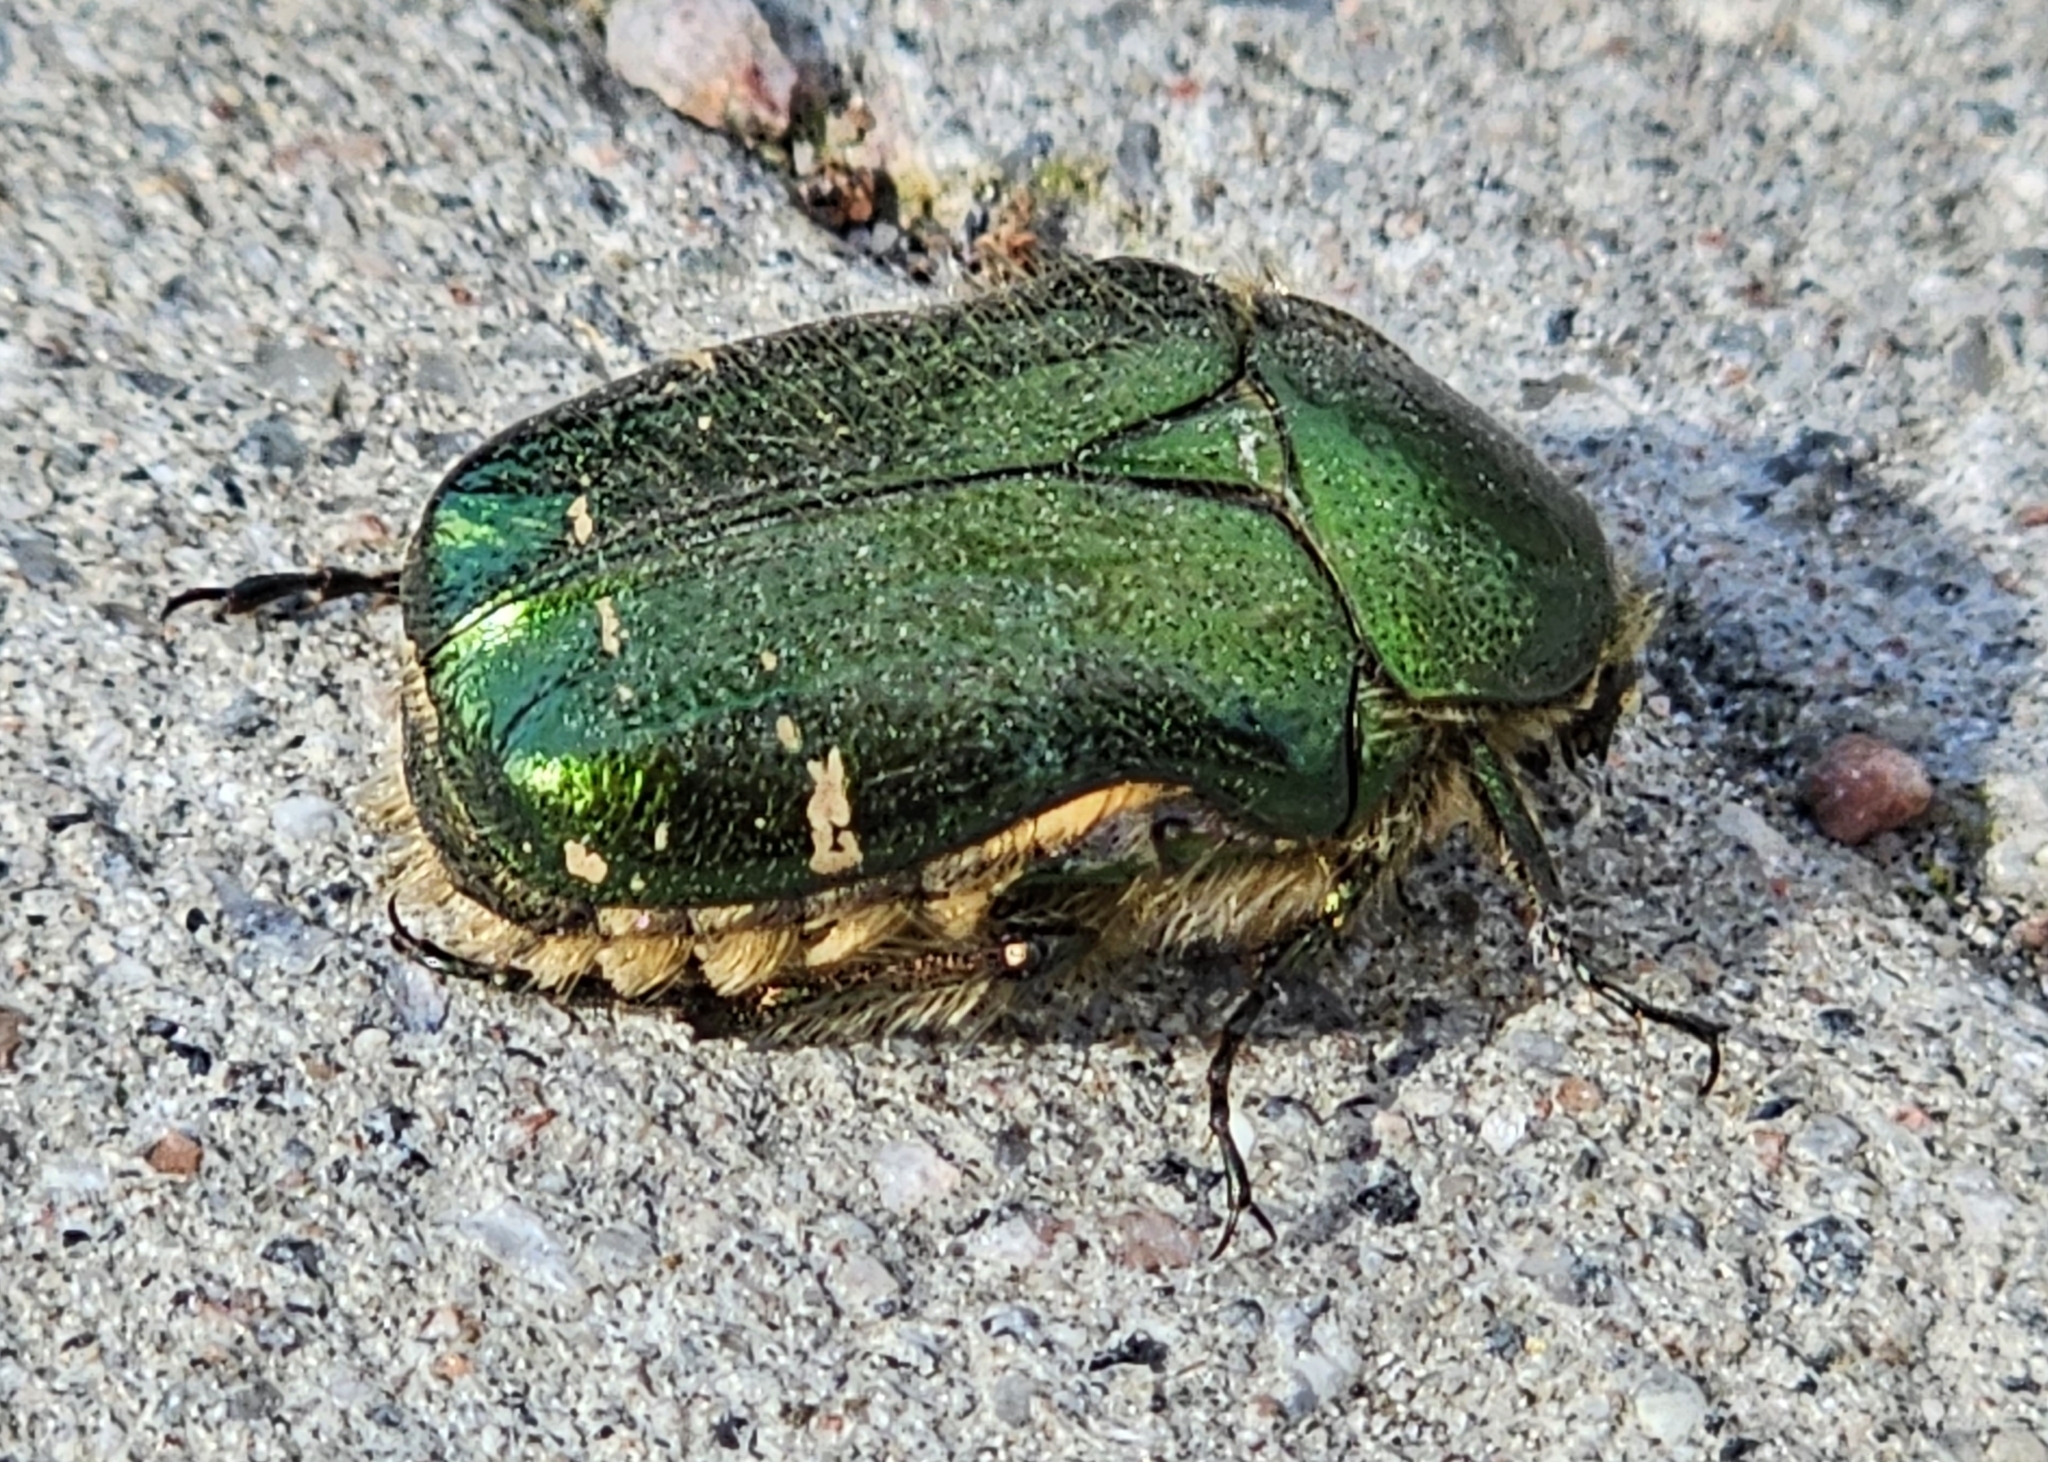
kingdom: Animalia
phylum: Arthropoda
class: Insecta
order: Coleoptera
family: Scarabaeidae
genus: Cetonia
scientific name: Cetonia aurata
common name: Rose chafer
